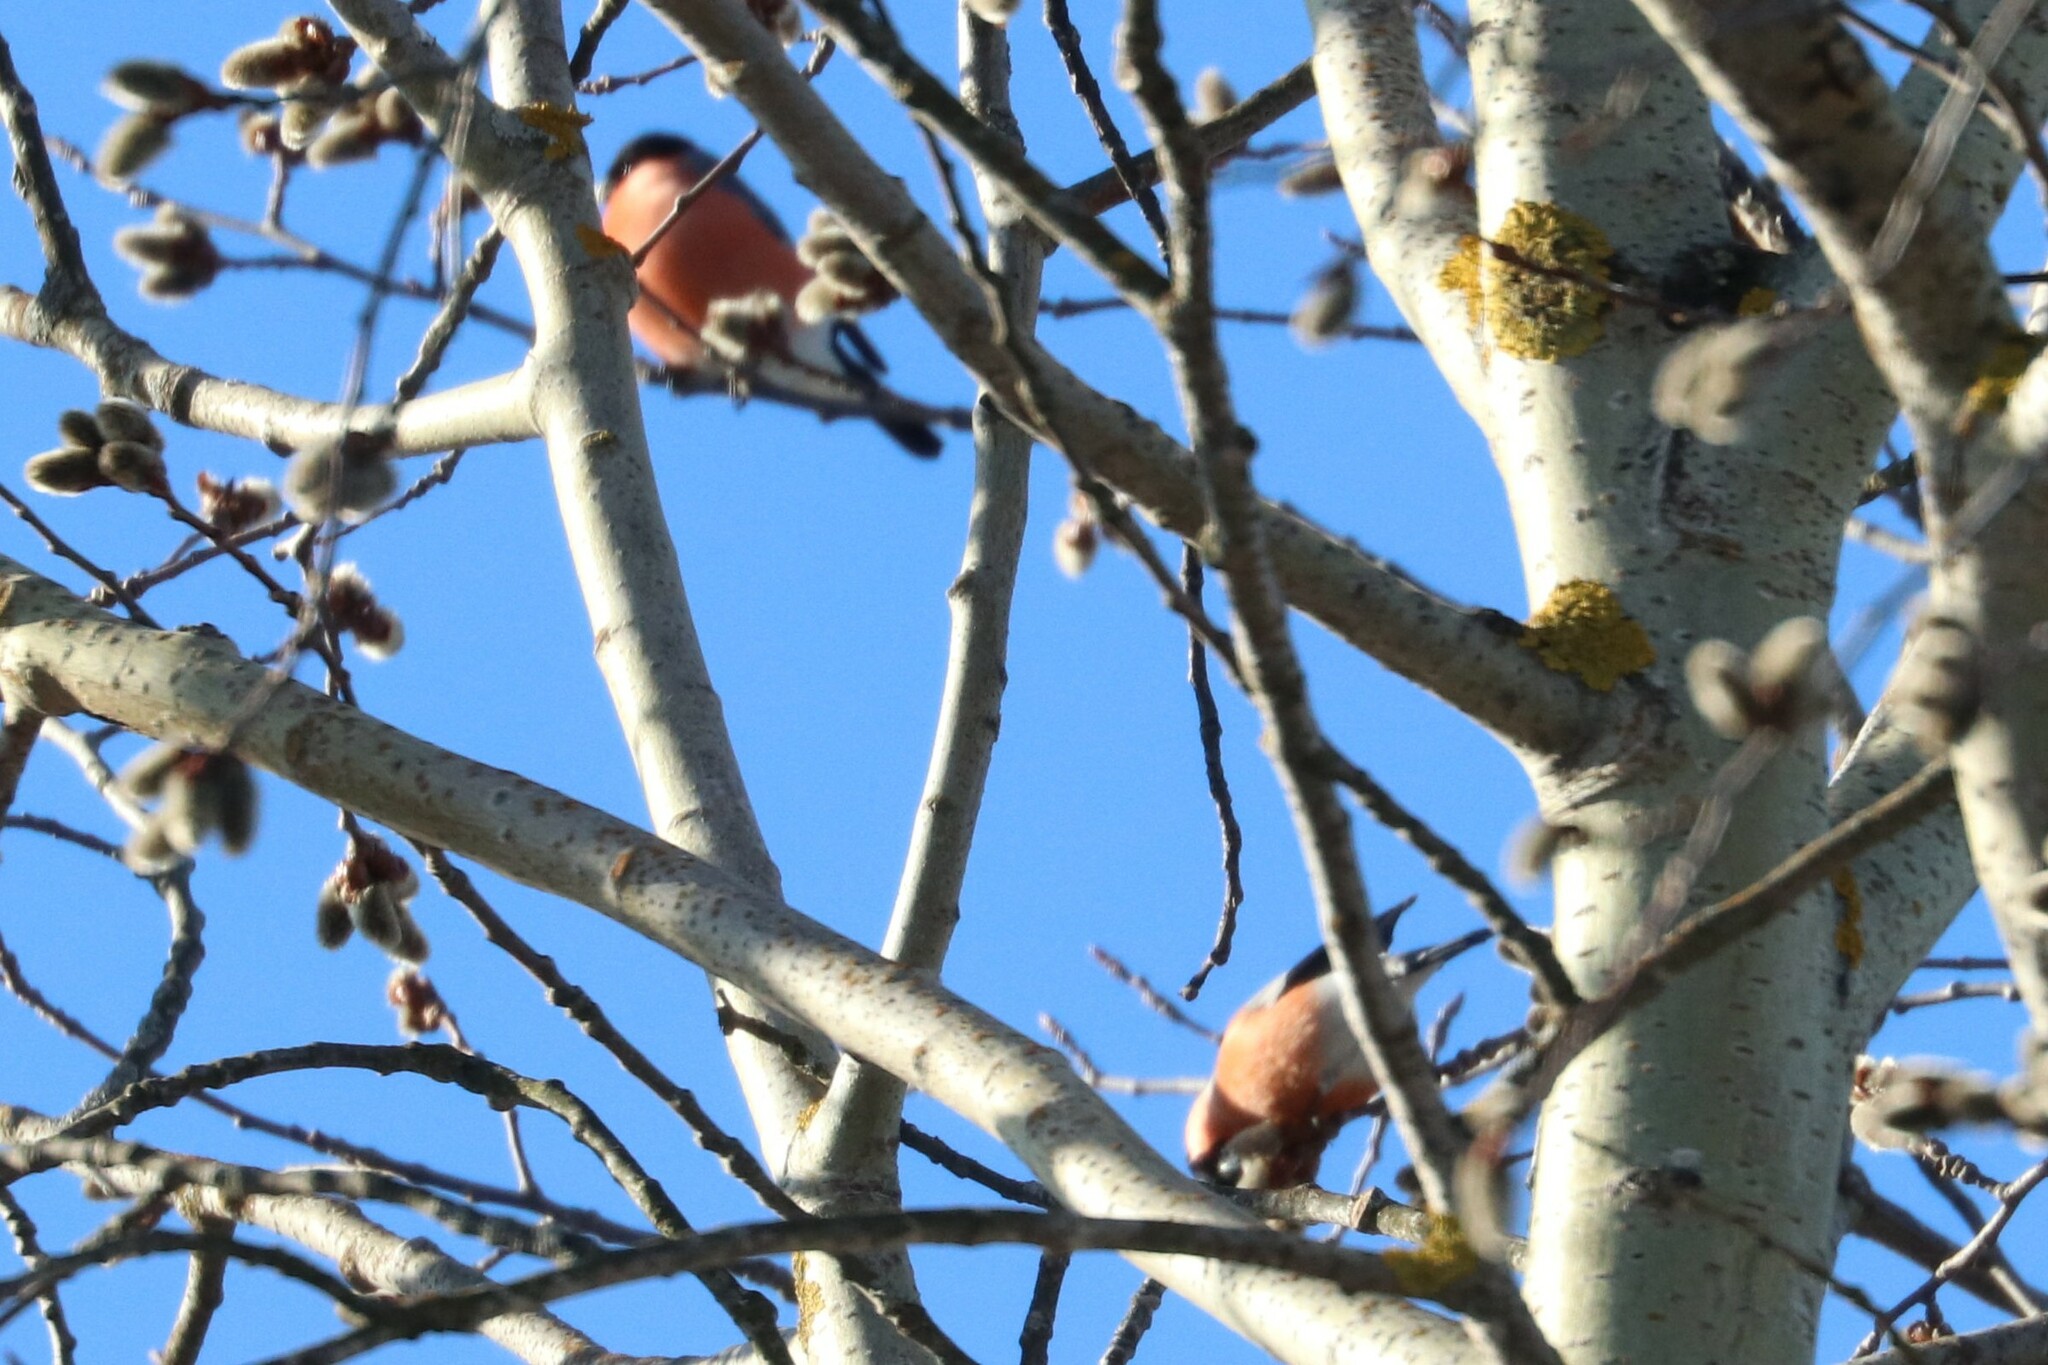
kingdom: Animalia
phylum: Chordata
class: Aves
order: Passeriformes
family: Fringillidae
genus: Pyrrhula
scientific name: Pyrrhula pyrrhula
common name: Eurasian bullfinch
